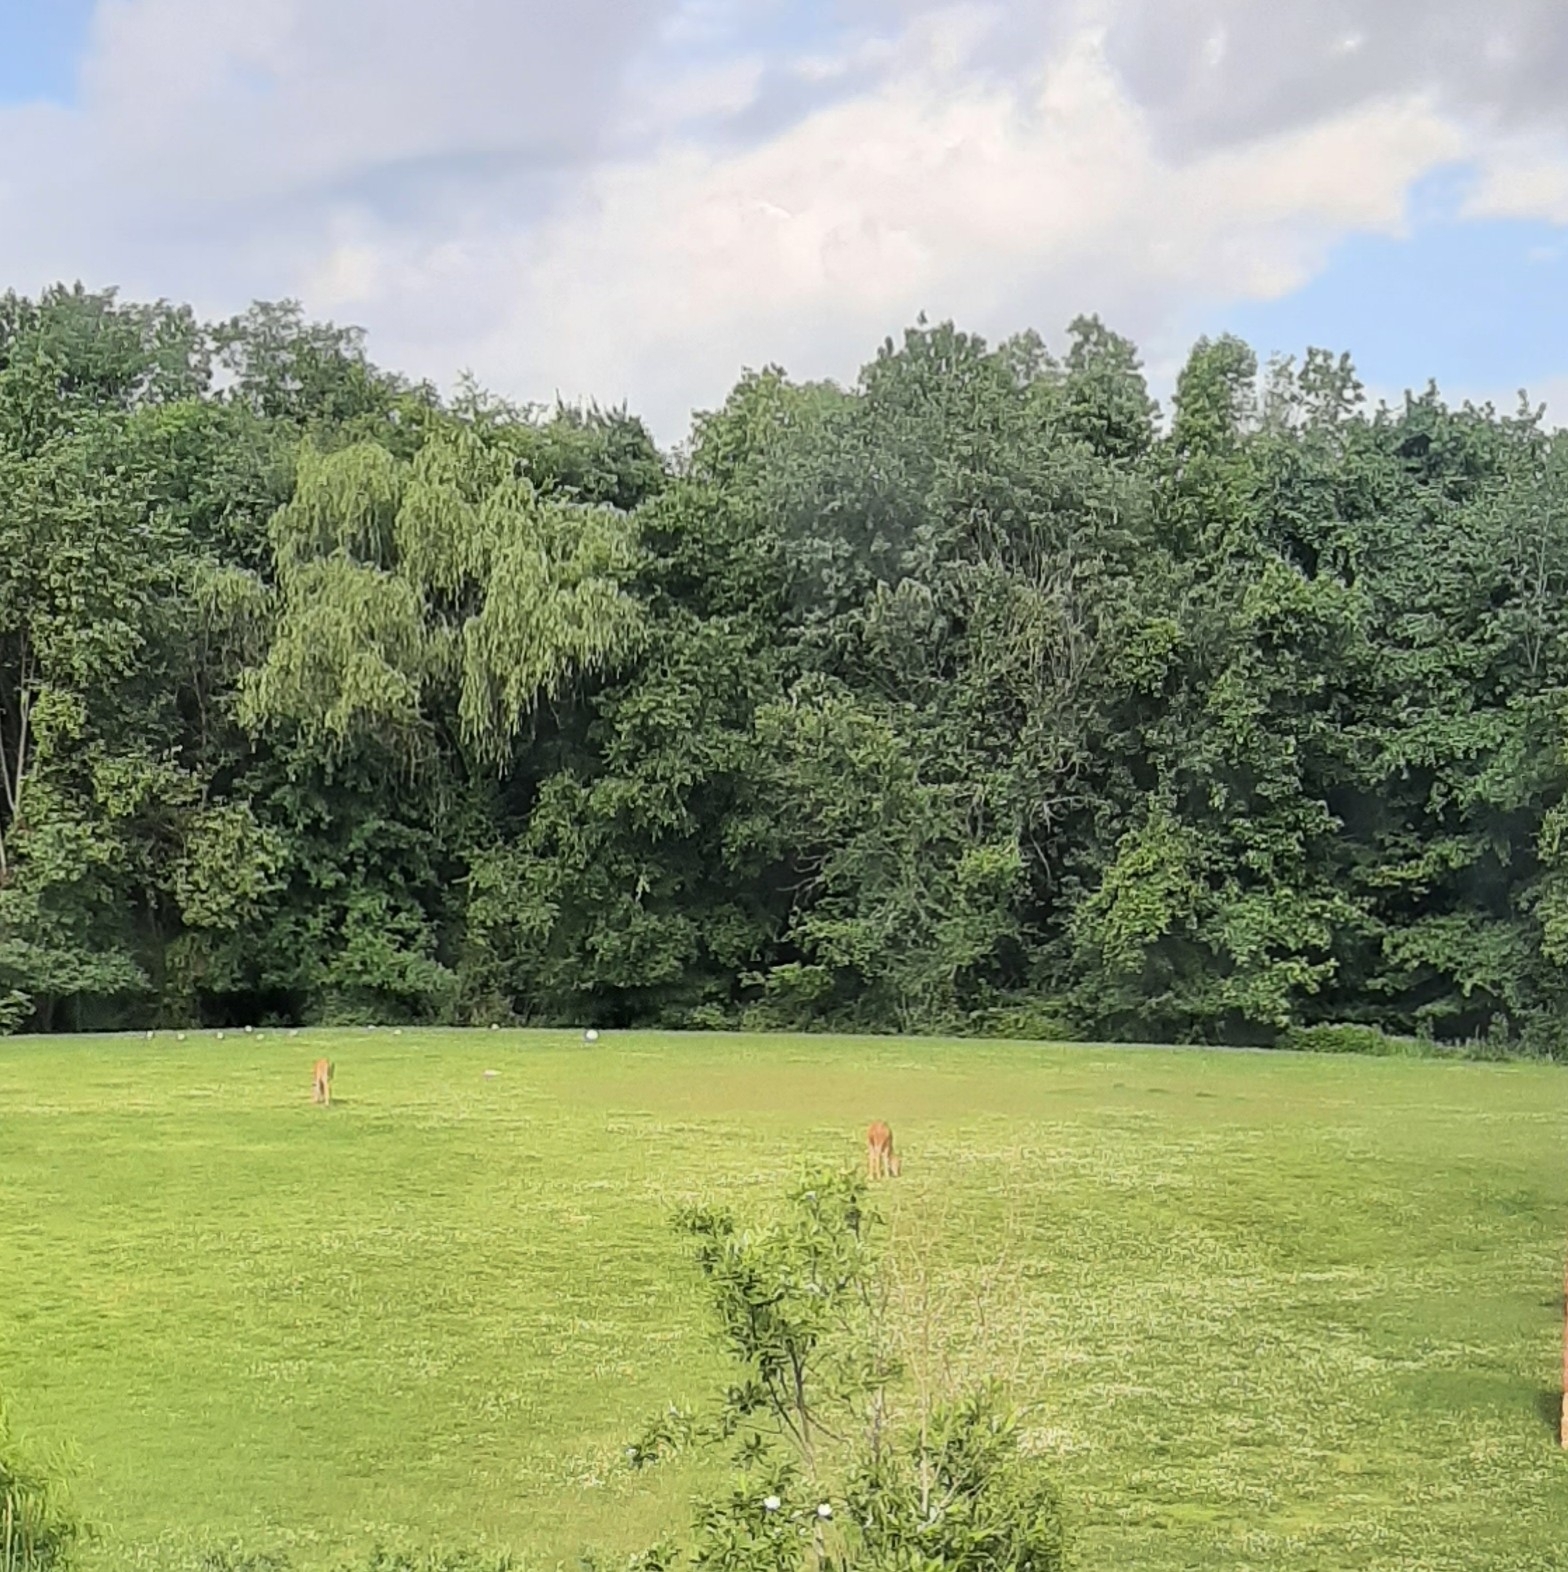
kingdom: Animalia
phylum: Chordata
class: Mammalia
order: Artiodactyla
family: Cervidae
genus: Odocoileus
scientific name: Odocoileus virginianus
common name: White-tailed deer
